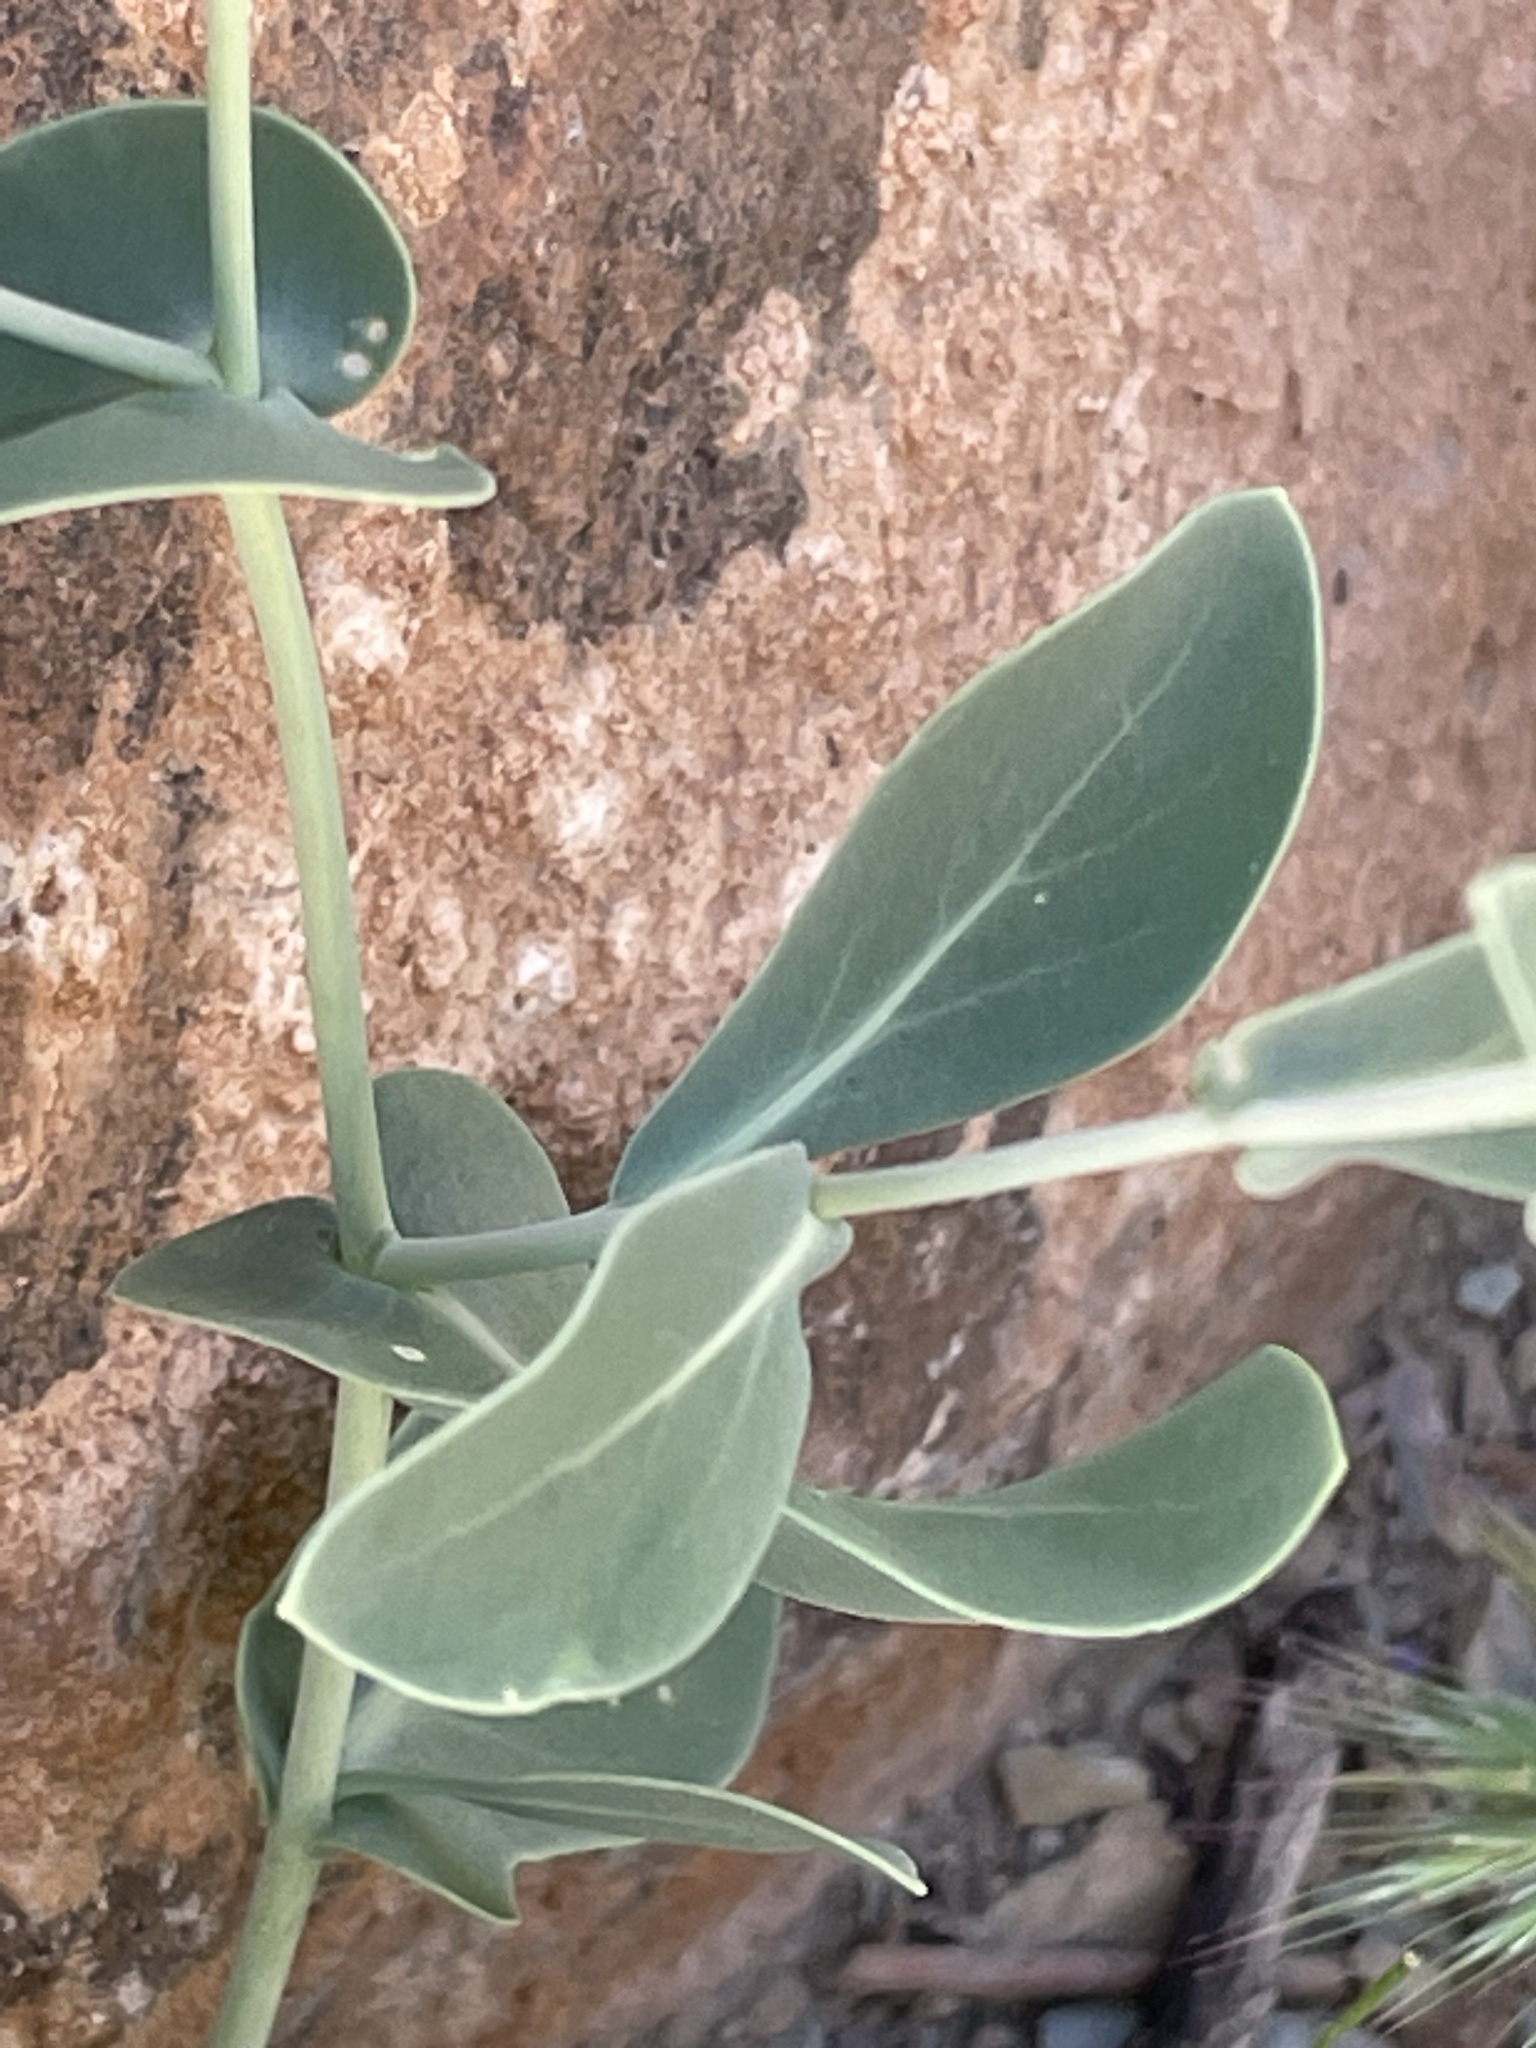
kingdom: Plantae
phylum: Tracheophyta
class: Magnoliopsida
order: Brassicales
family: Brassicaceae
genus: Moricandia
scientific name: Moricandia suffruticosa
